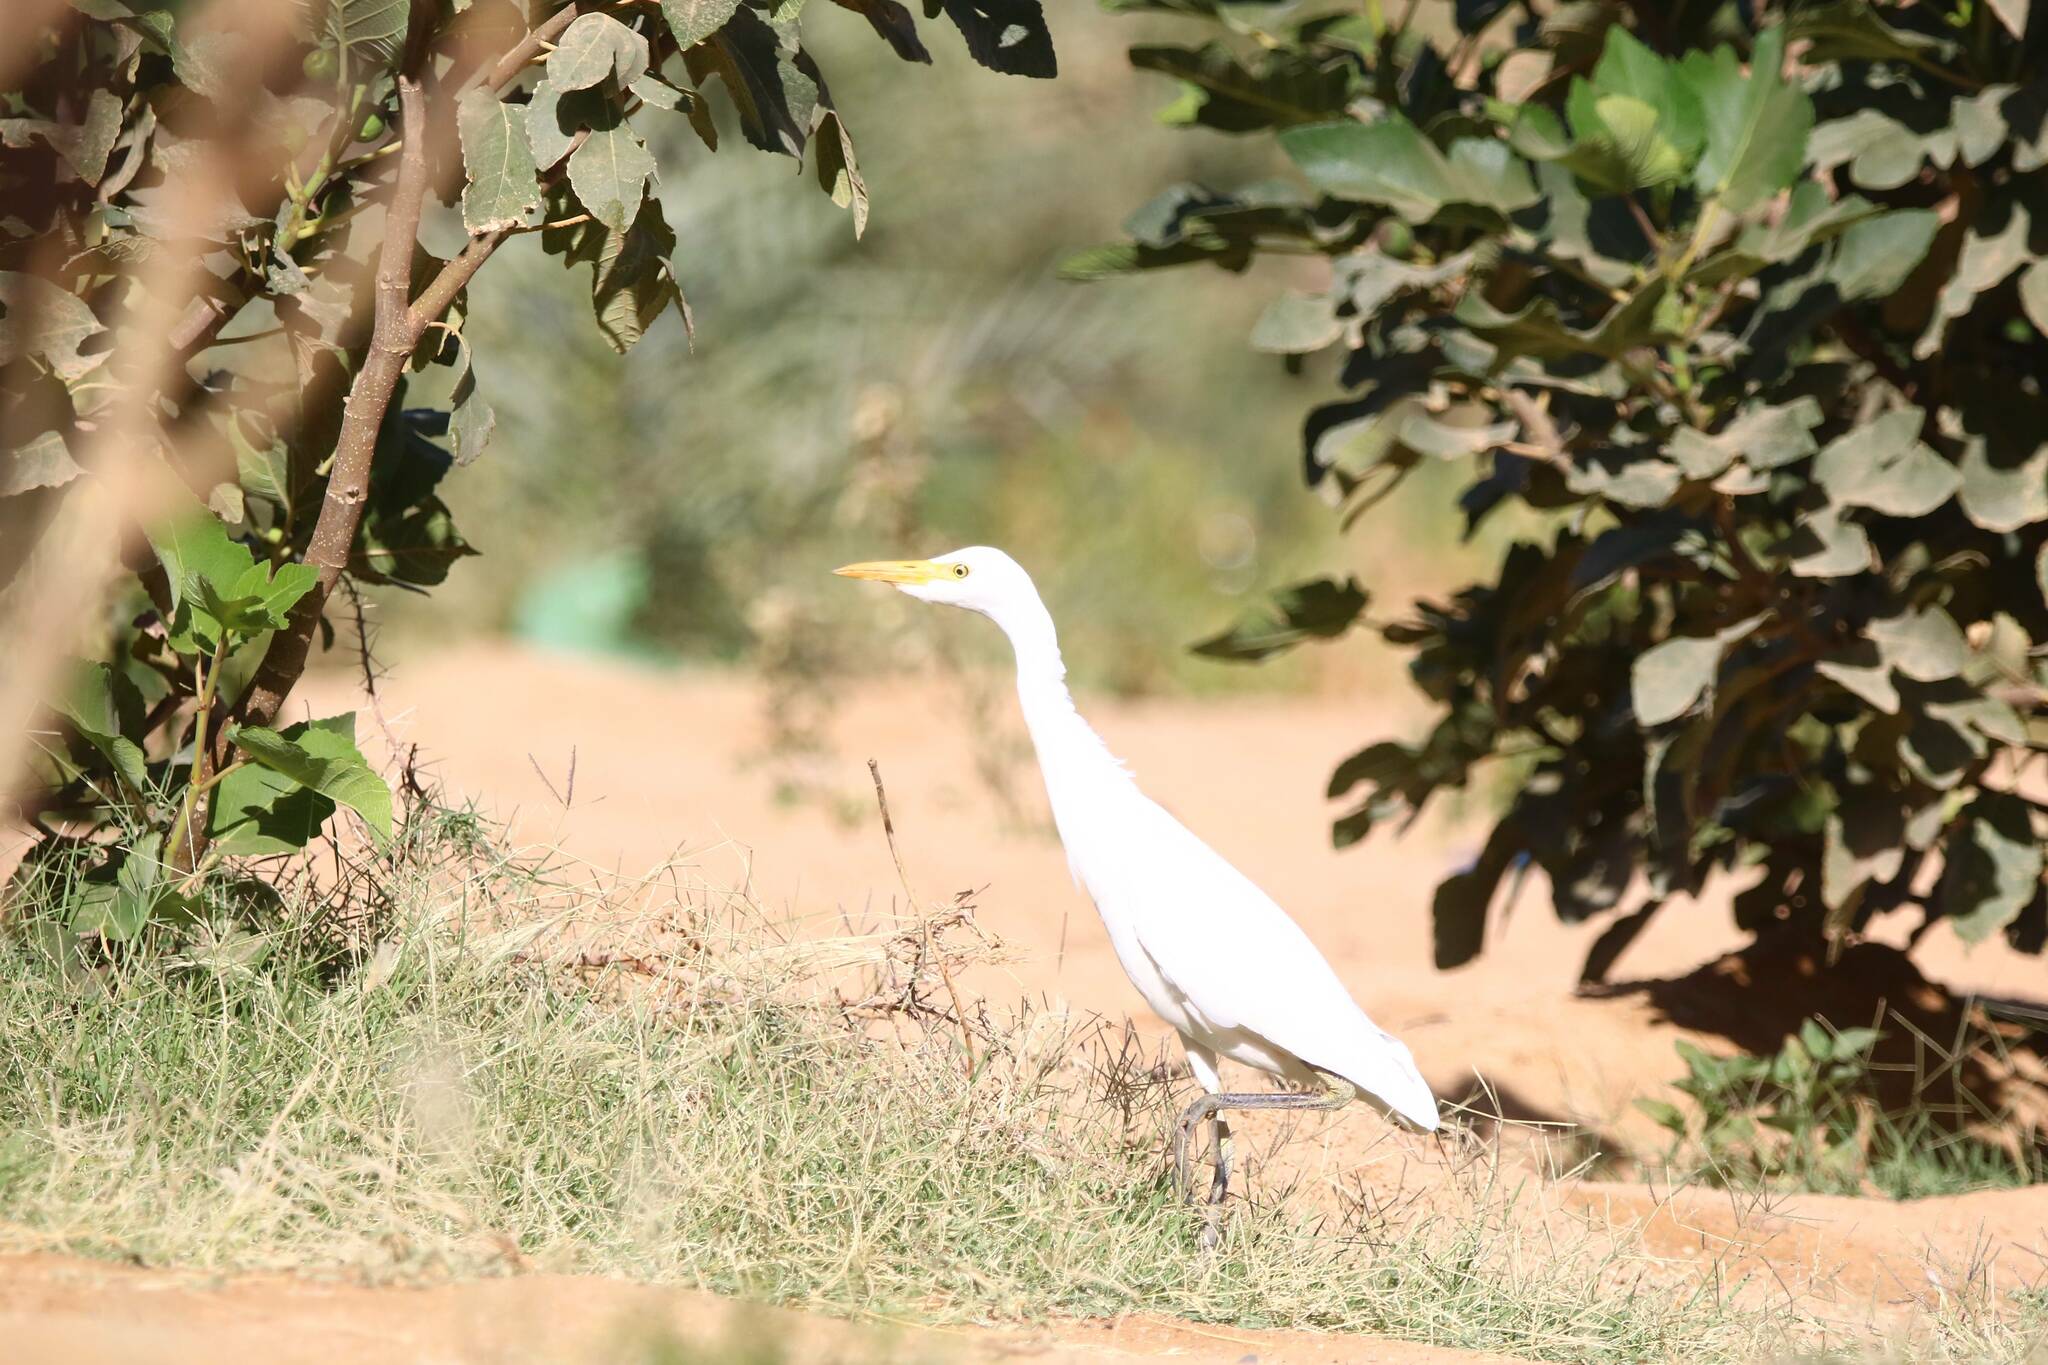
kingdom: Animalia
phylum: Chordata
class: Aves
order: Pelecaniformes
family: Ardeidae
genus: Bubulcus
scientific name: Bubulcus ibis
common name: Cattle egret
